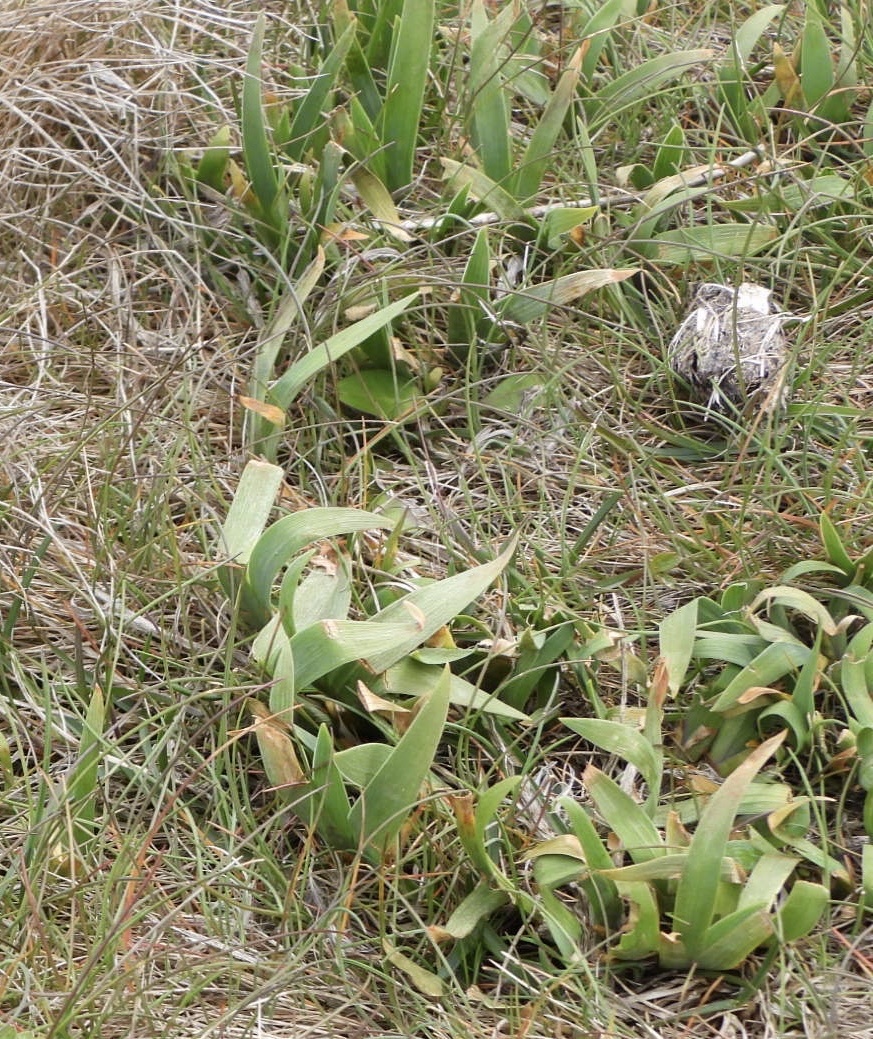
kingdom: Plantae
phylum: Tracheophyta
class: Liliopsida
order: Asparagales
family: Iridaceae
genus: Iris
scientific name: Iris hookeri
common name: Canada beach-head iris
